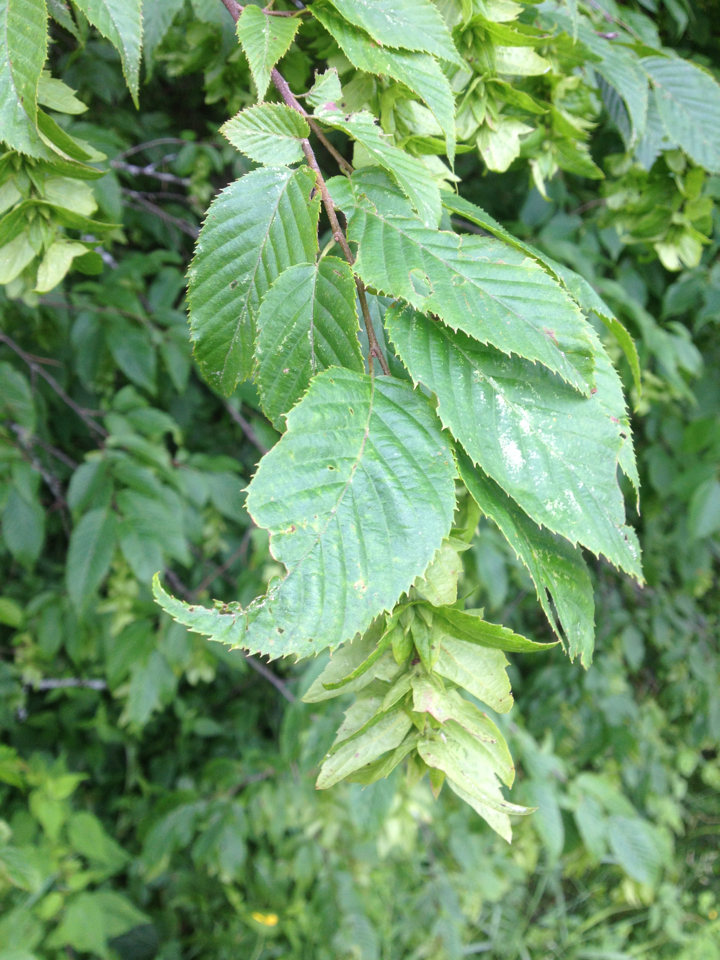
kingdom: Plantae
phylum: Tracheophyta
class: Magnoliopsida
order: Fagales
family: Betulaceae
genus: Ostrya
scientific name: Ostrya virginiana
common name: Ironwood
